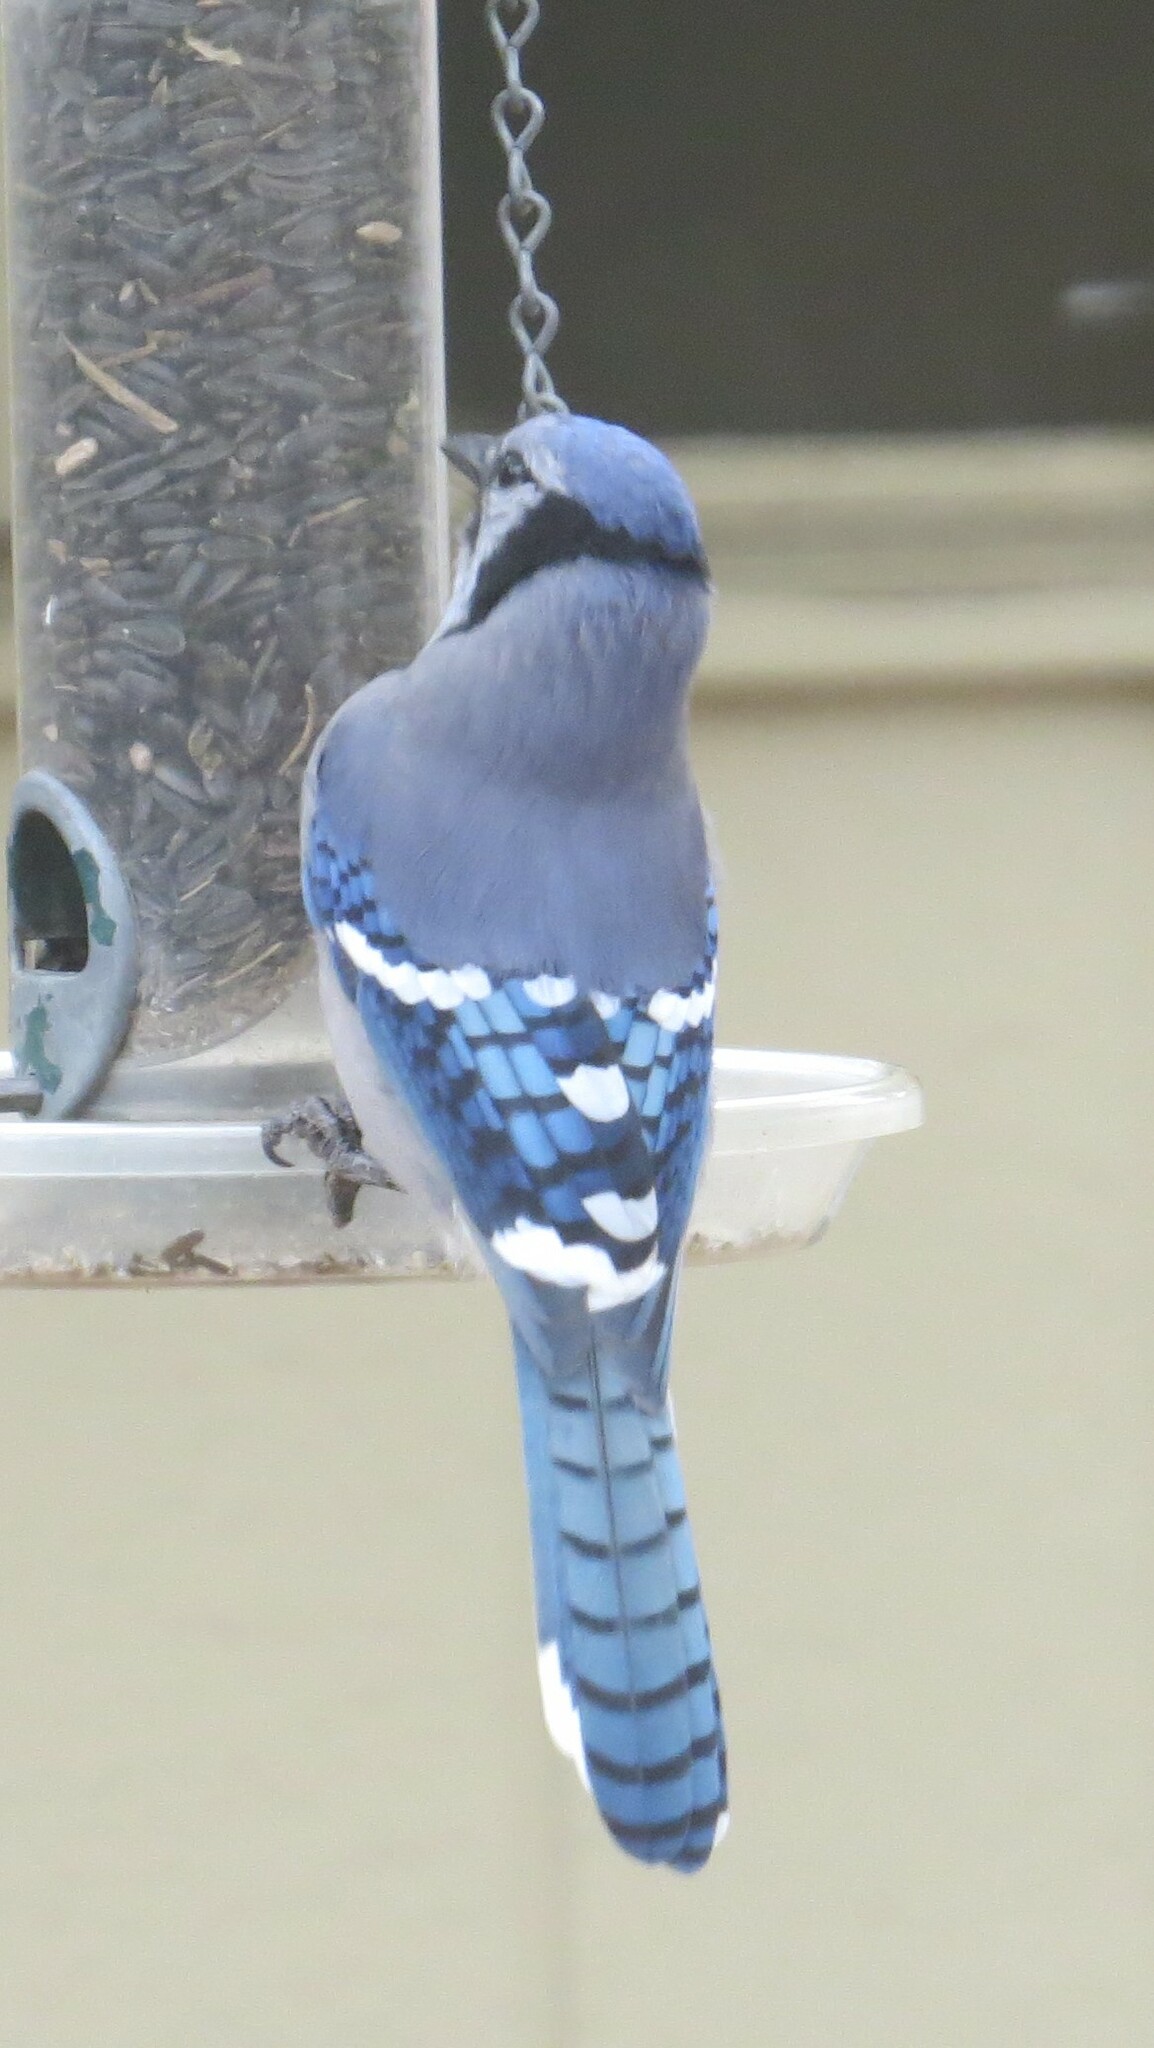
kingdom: Animalia
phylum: Chordata
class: Aves
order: Passeriformes
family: Corvidae
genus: Cyanocitta
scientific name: Cyanocitta cristata
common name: Blue jay
